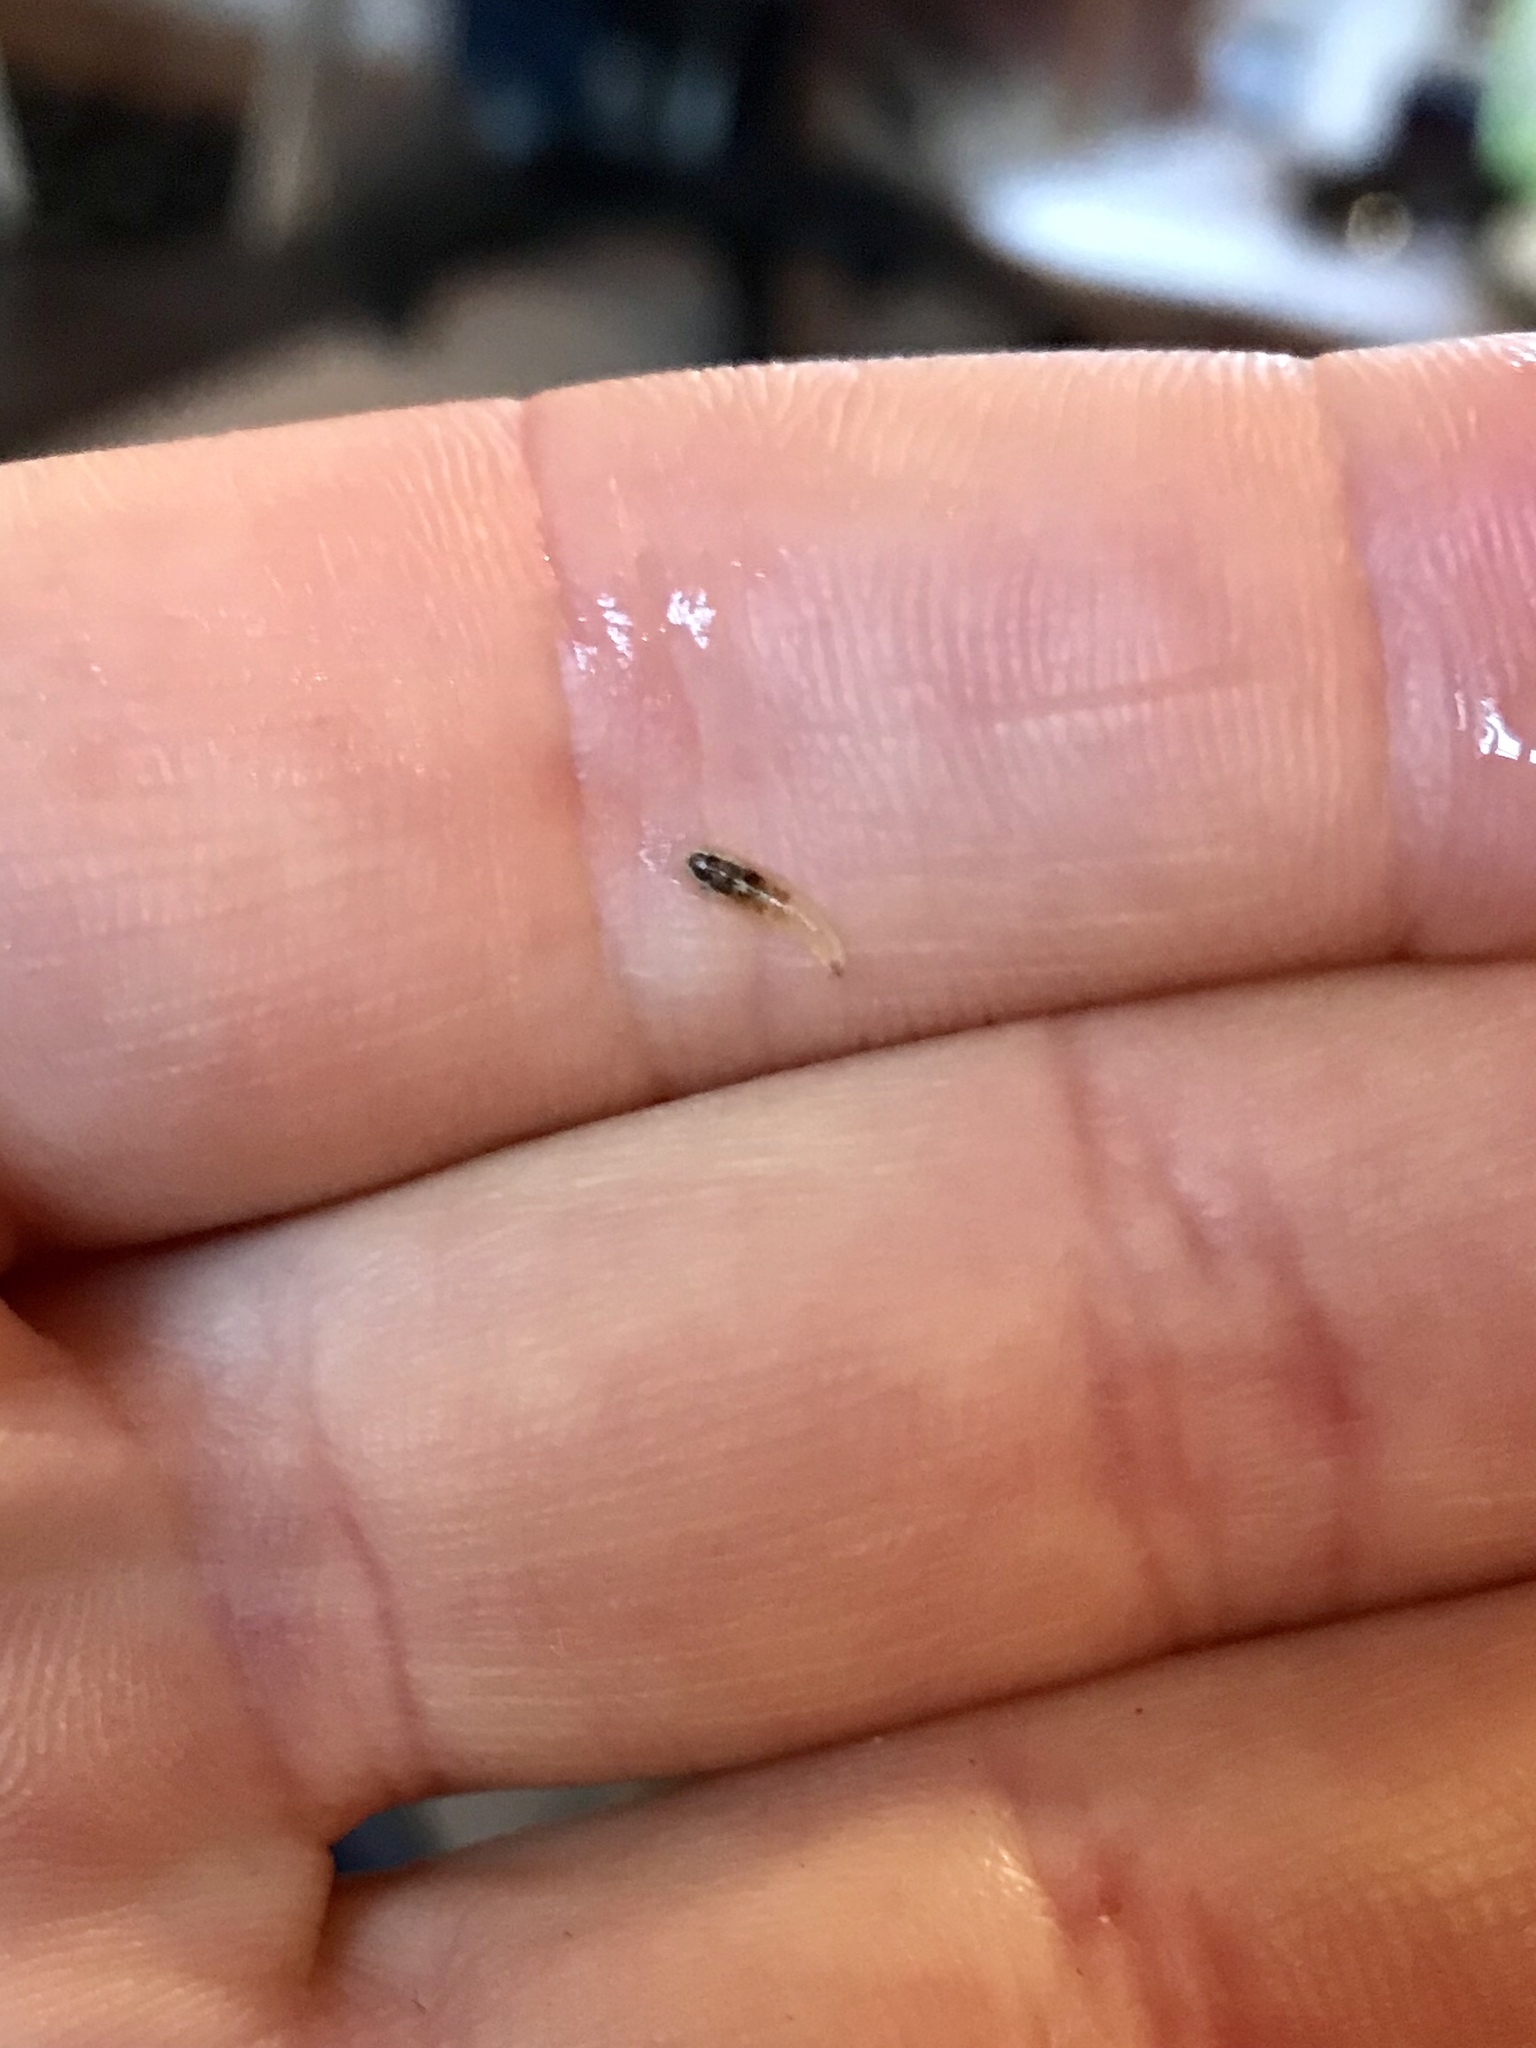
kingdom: Animalia
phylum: Arthropoda
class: Insecta
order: Diptera
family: Syrphidae
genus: Episyrphus
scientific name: Episyrphus balteatus
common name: Marmalade hoverfly
